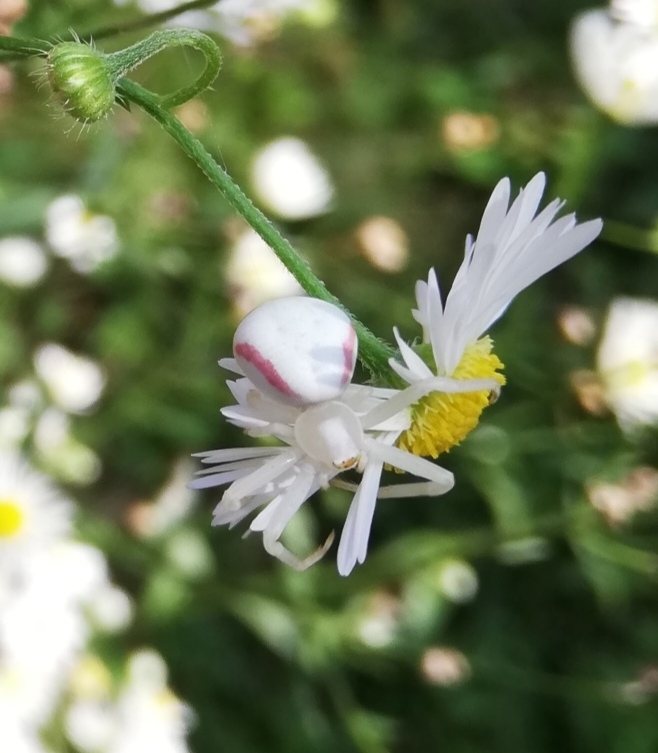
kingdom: Animalia
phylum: Arthropoda
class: Arachnida
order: Araneae
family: Thomisidae
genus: Misumena
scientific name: Misumena vatia
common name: Goldenrod crab spider
